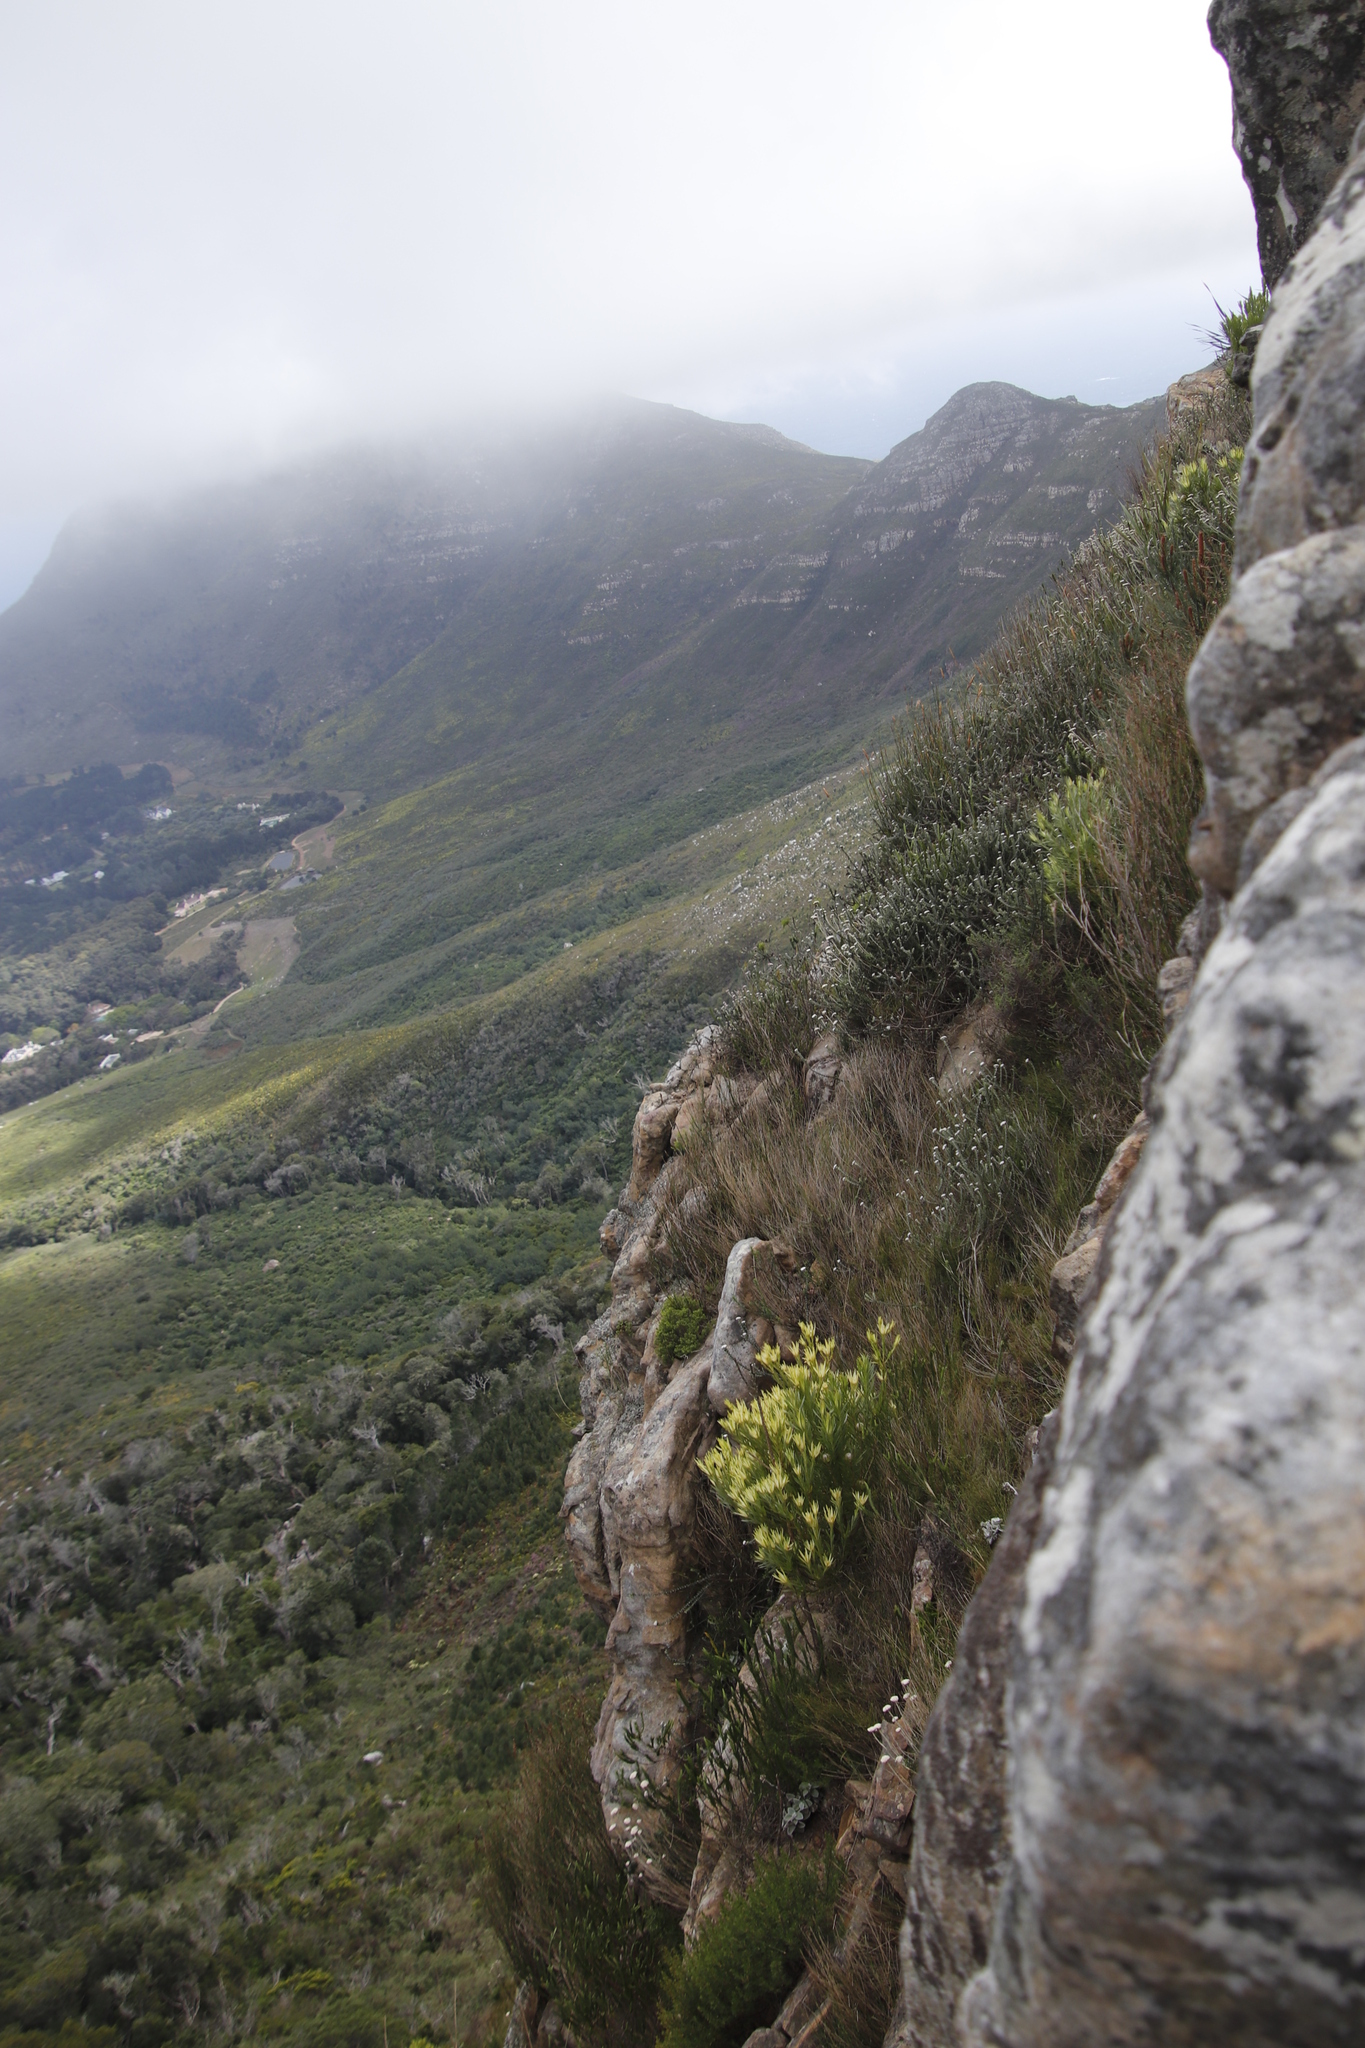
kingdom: Plantae
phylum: Tracheophyta
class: Magnoliopsida
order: Proteales
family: Proteaceae
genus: Leucadendron
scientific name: Leucadendron xanthoconus
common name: Sickle-leaf conebush
